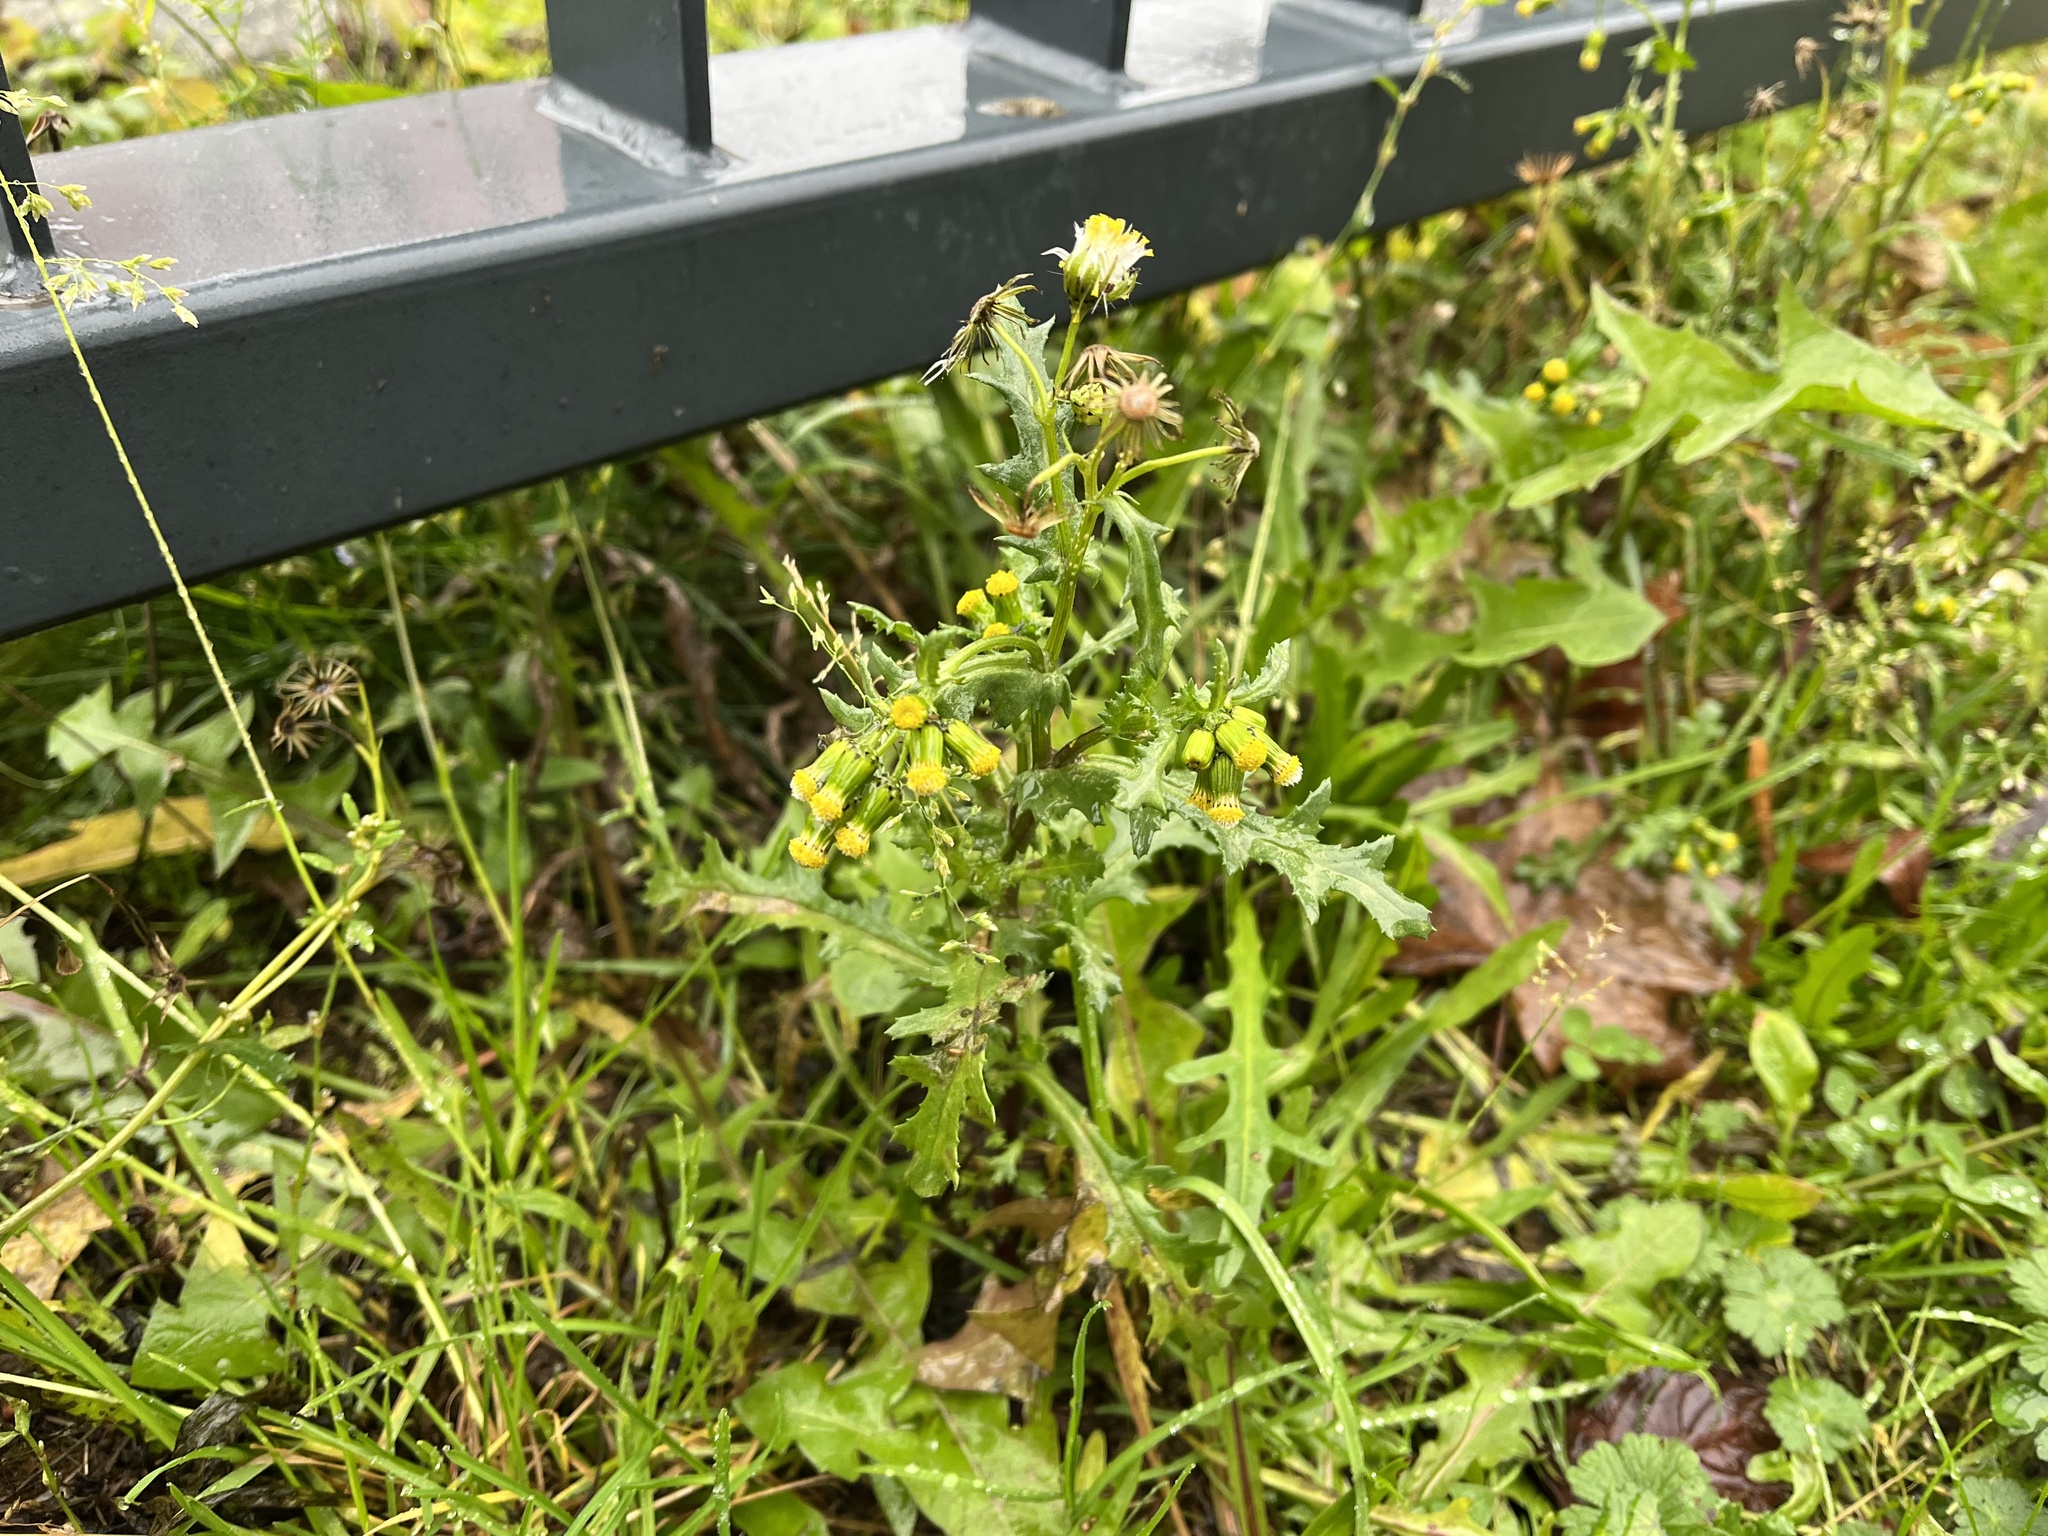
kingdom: Plantae
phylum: Tracheophyta
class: Magnoliopsida
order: Asterales
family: Asteraceae
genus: Senecio
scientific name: Senecio vulgaris
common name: Old-man-in-the-spring
